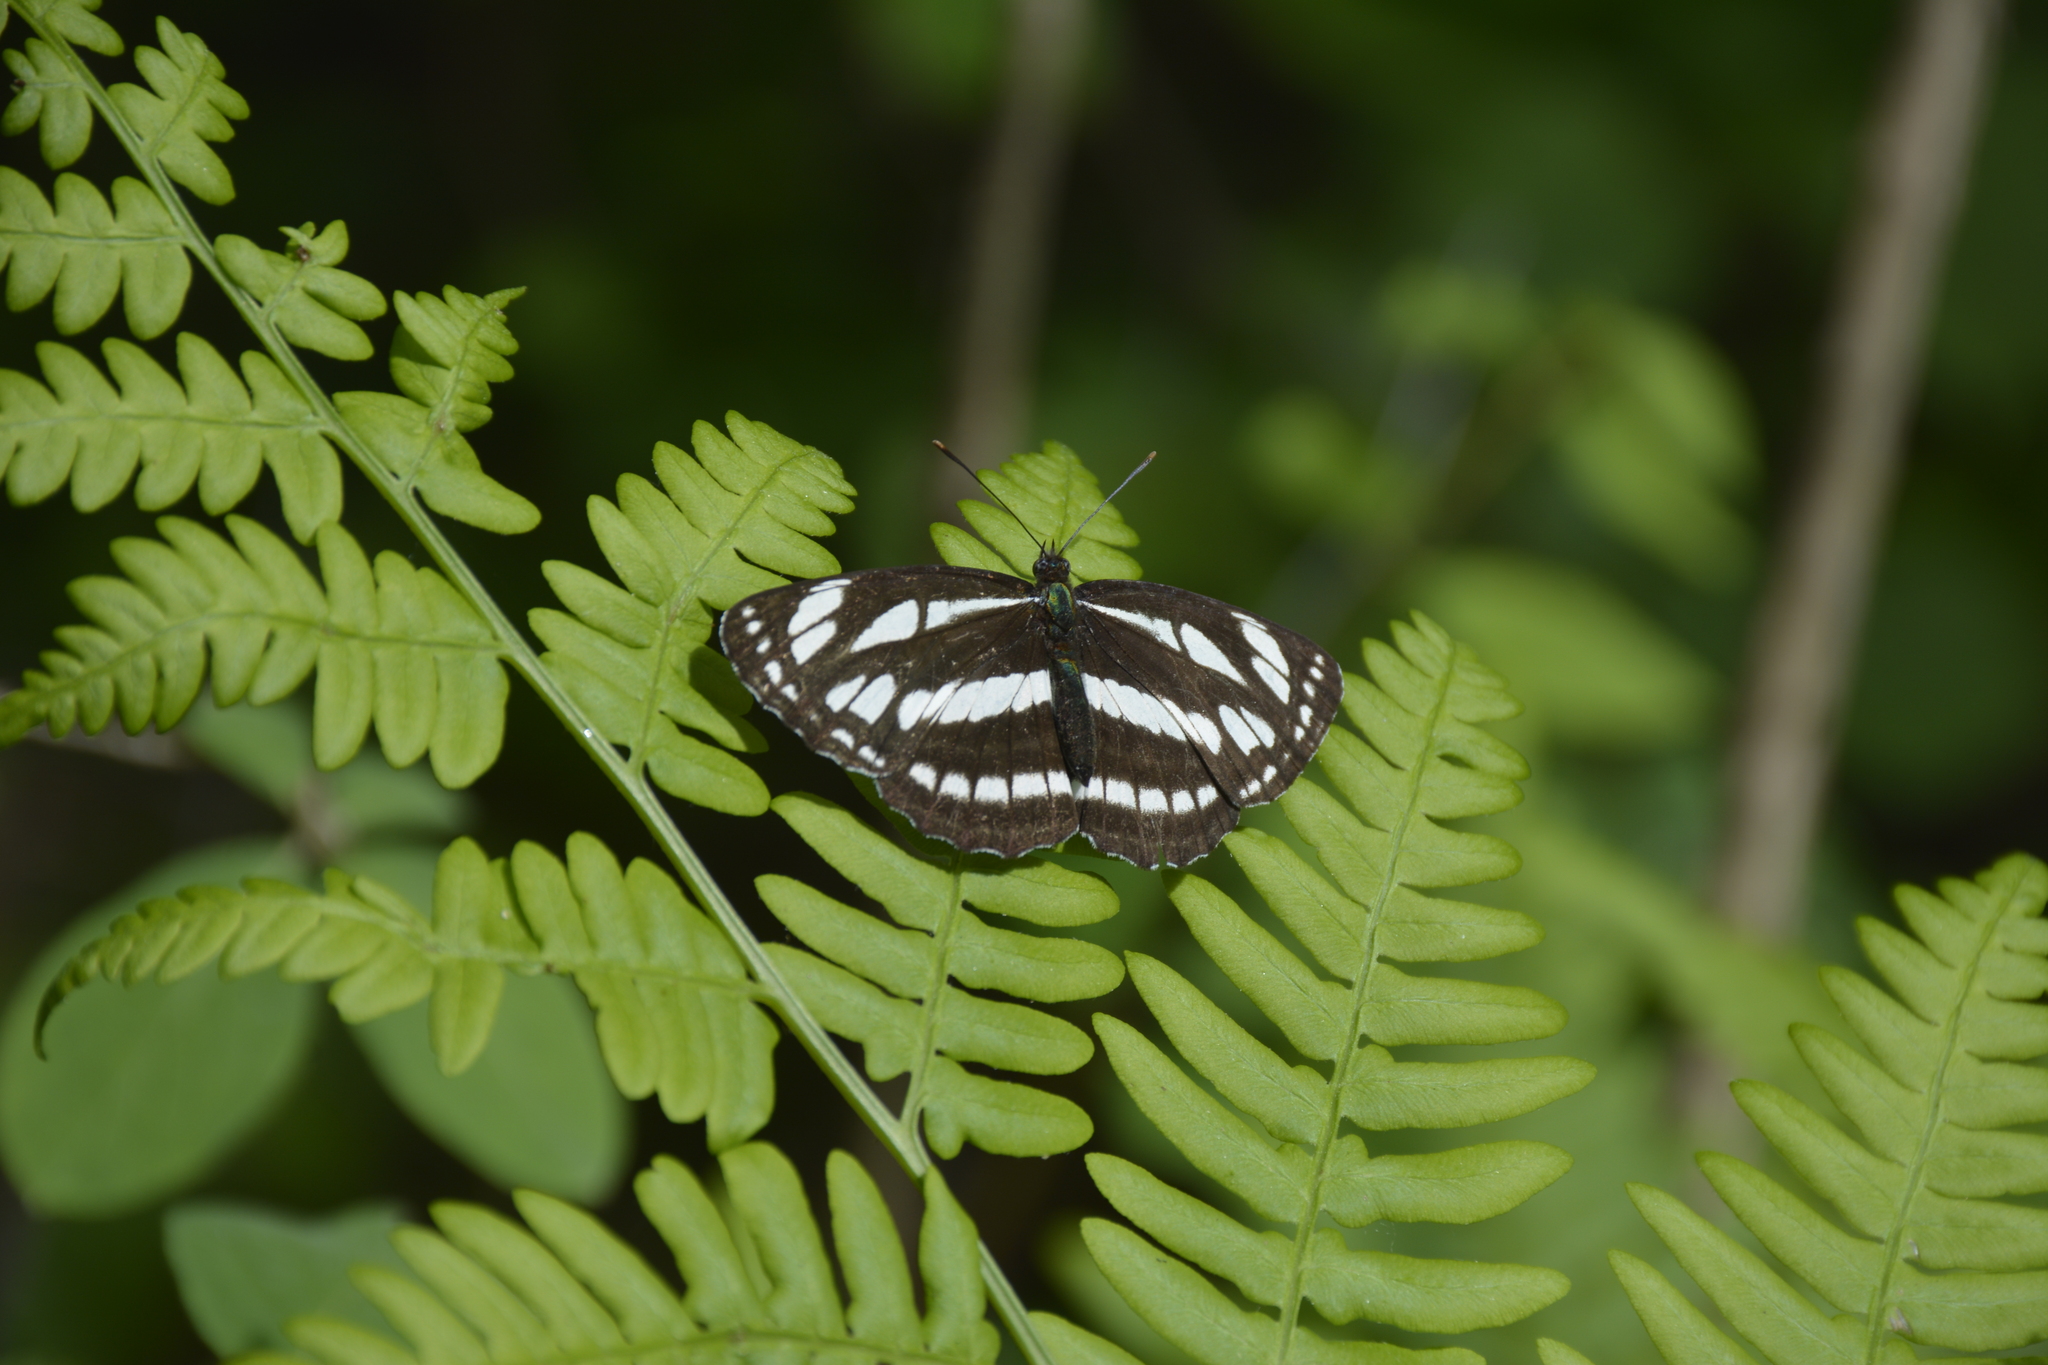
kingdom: Animalia
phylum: Arthropoda
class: Insecta
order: Lepidoptera
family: Nymphalidae
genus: Neptis
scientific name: Neptis sappho
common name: Common glider
